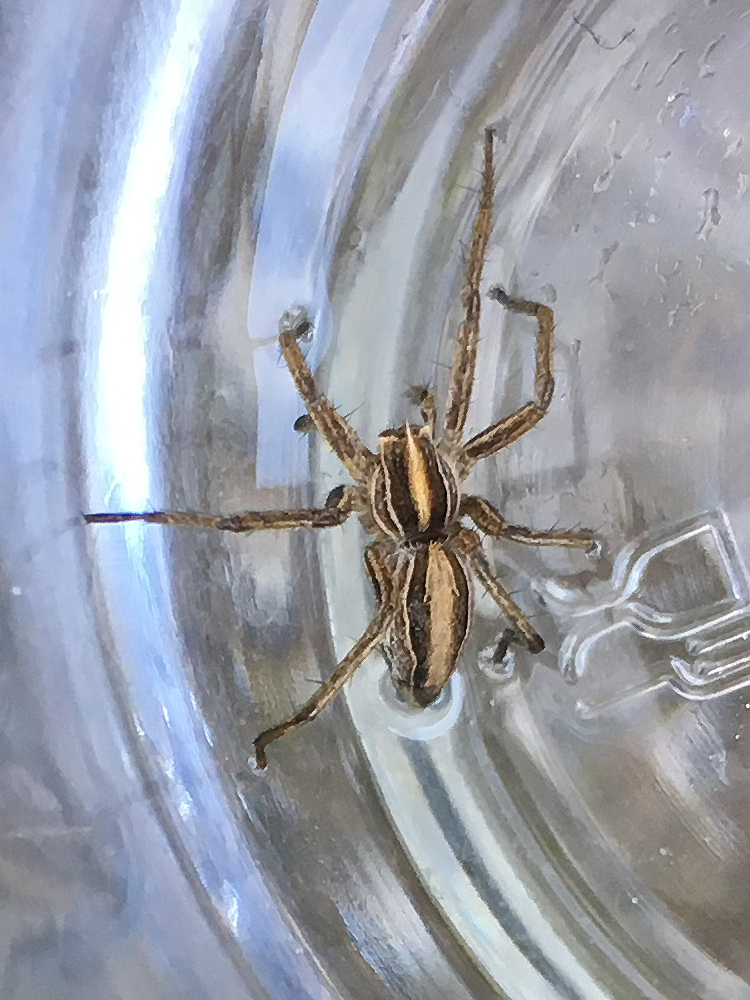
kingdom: Animalia
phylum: Arthropoda
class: Arachnida
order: Araneae
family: Pisauridae
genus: Pisaura
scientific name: Pisaura mirabilis
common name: Tent spider
